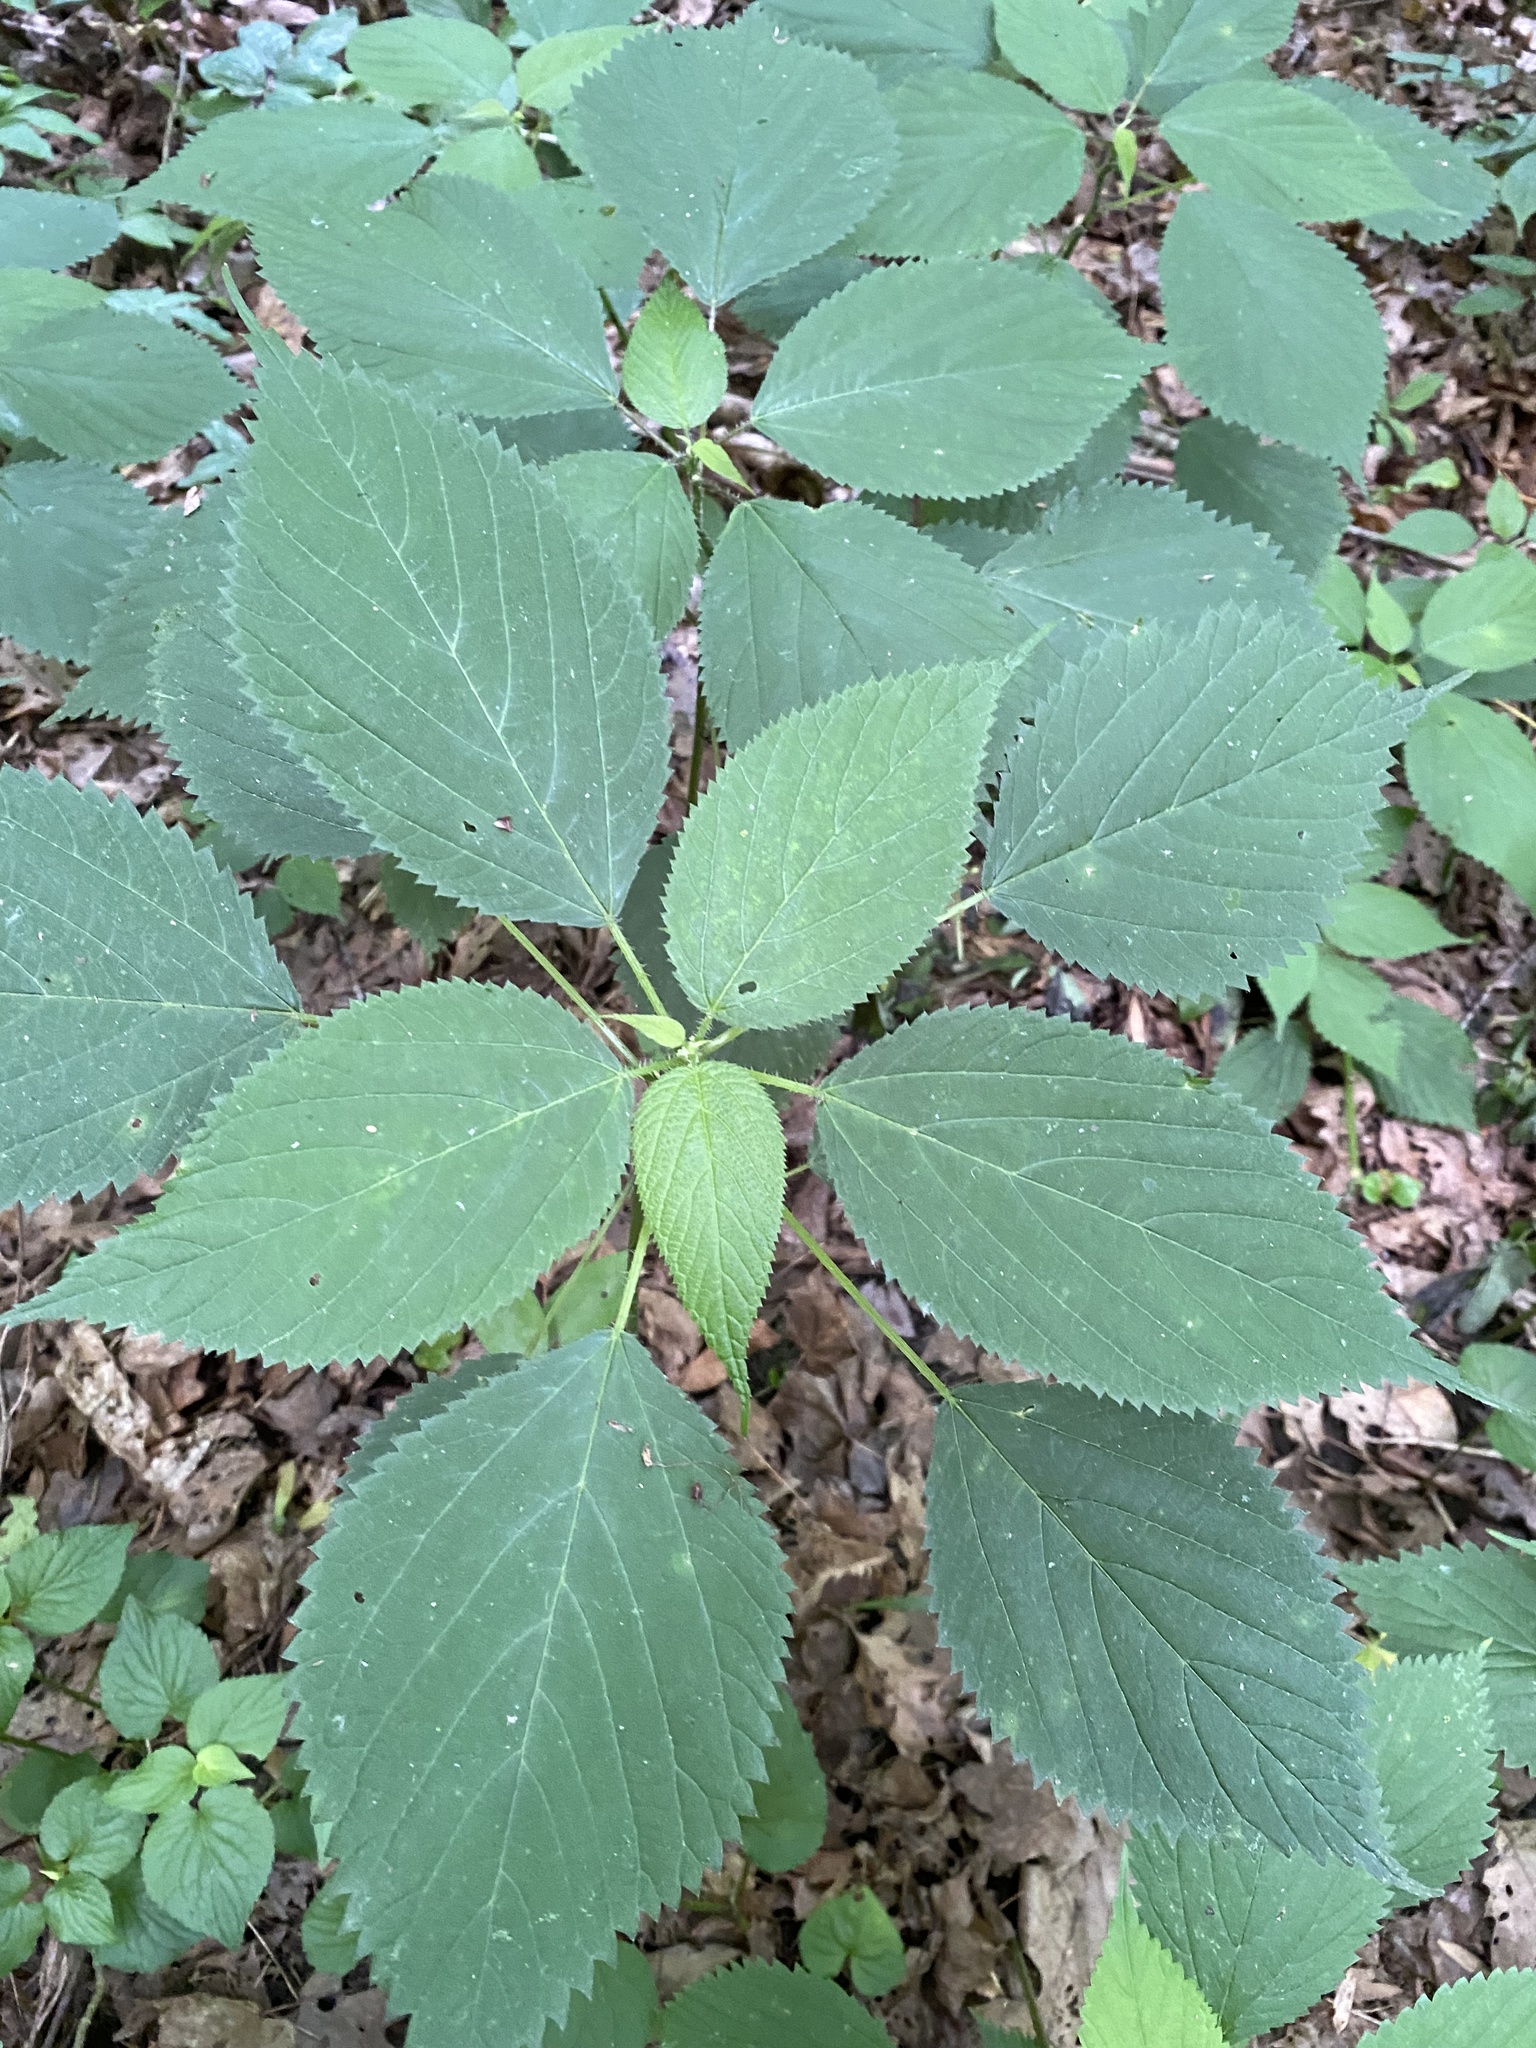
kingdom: Plantae
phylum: Tracheophyta
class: Magnoliopsida
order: Rosales
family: Urticaceae
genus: Laportea
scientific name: Laportea canadensis
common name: Canada nettle
